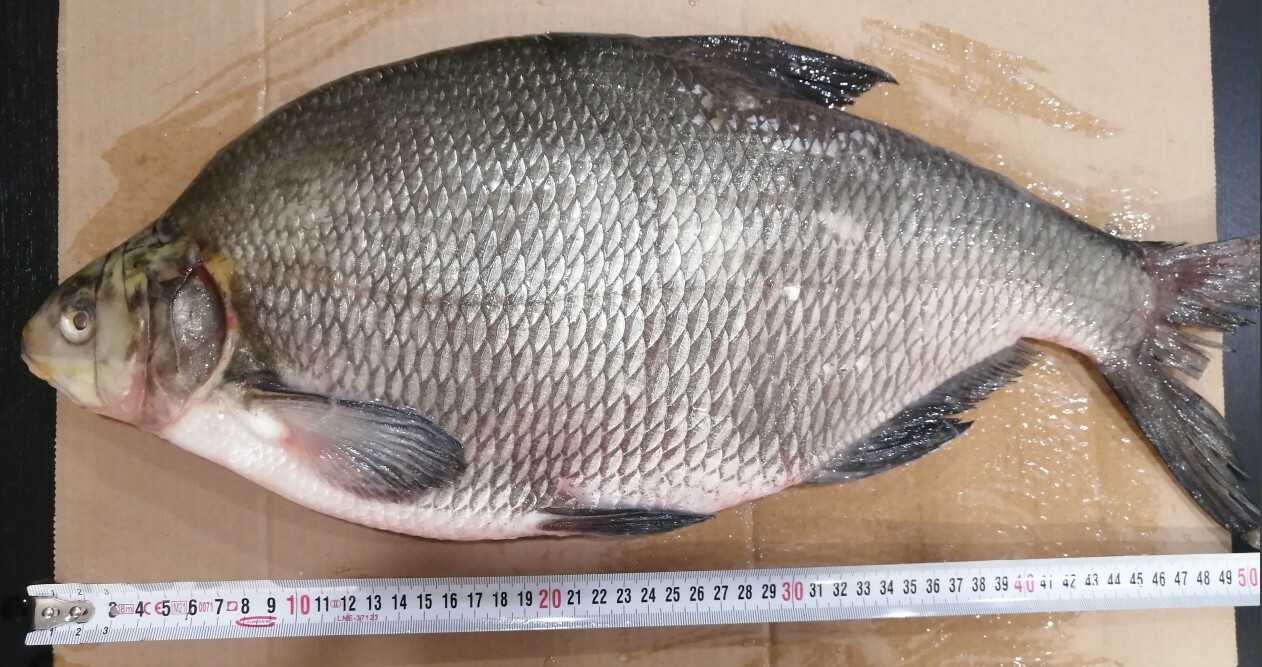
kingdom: Animalia
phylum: Chordata
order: Cypriniformes
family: Cyprinidae
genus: Abramis
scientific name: Abramis brama
